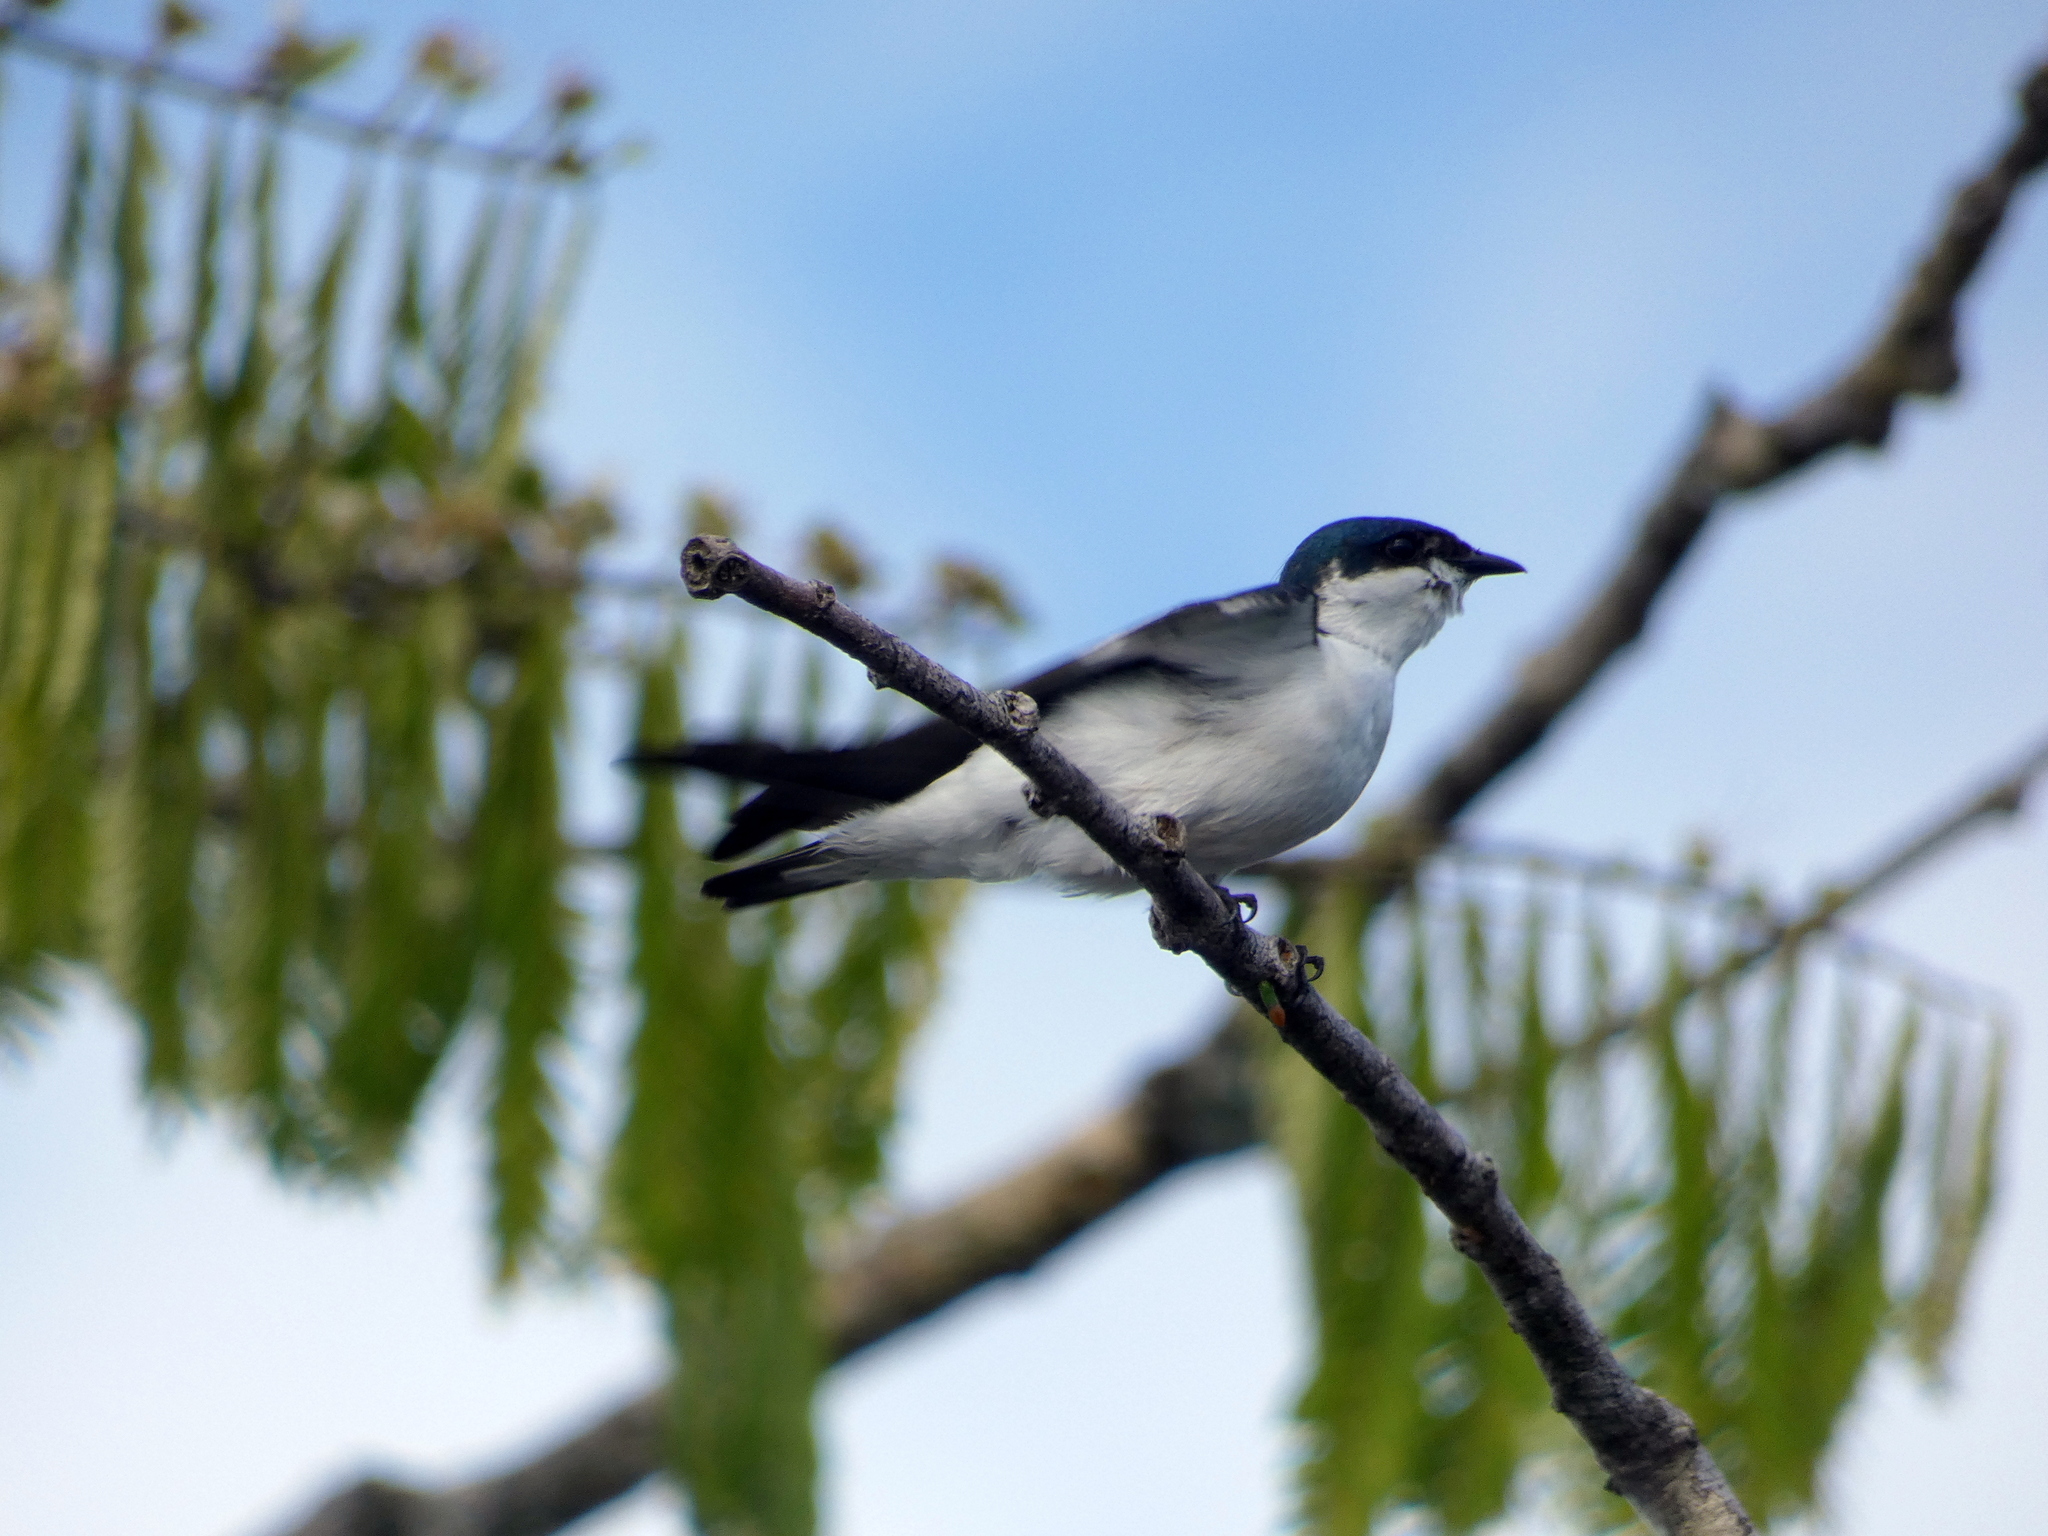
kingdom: Animalia
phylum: Chordata
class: Aves
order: Passeriformes
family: Hirundinidae
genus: Tachycineta
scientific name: Tachycineta albiventer
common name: White-winged swallow
